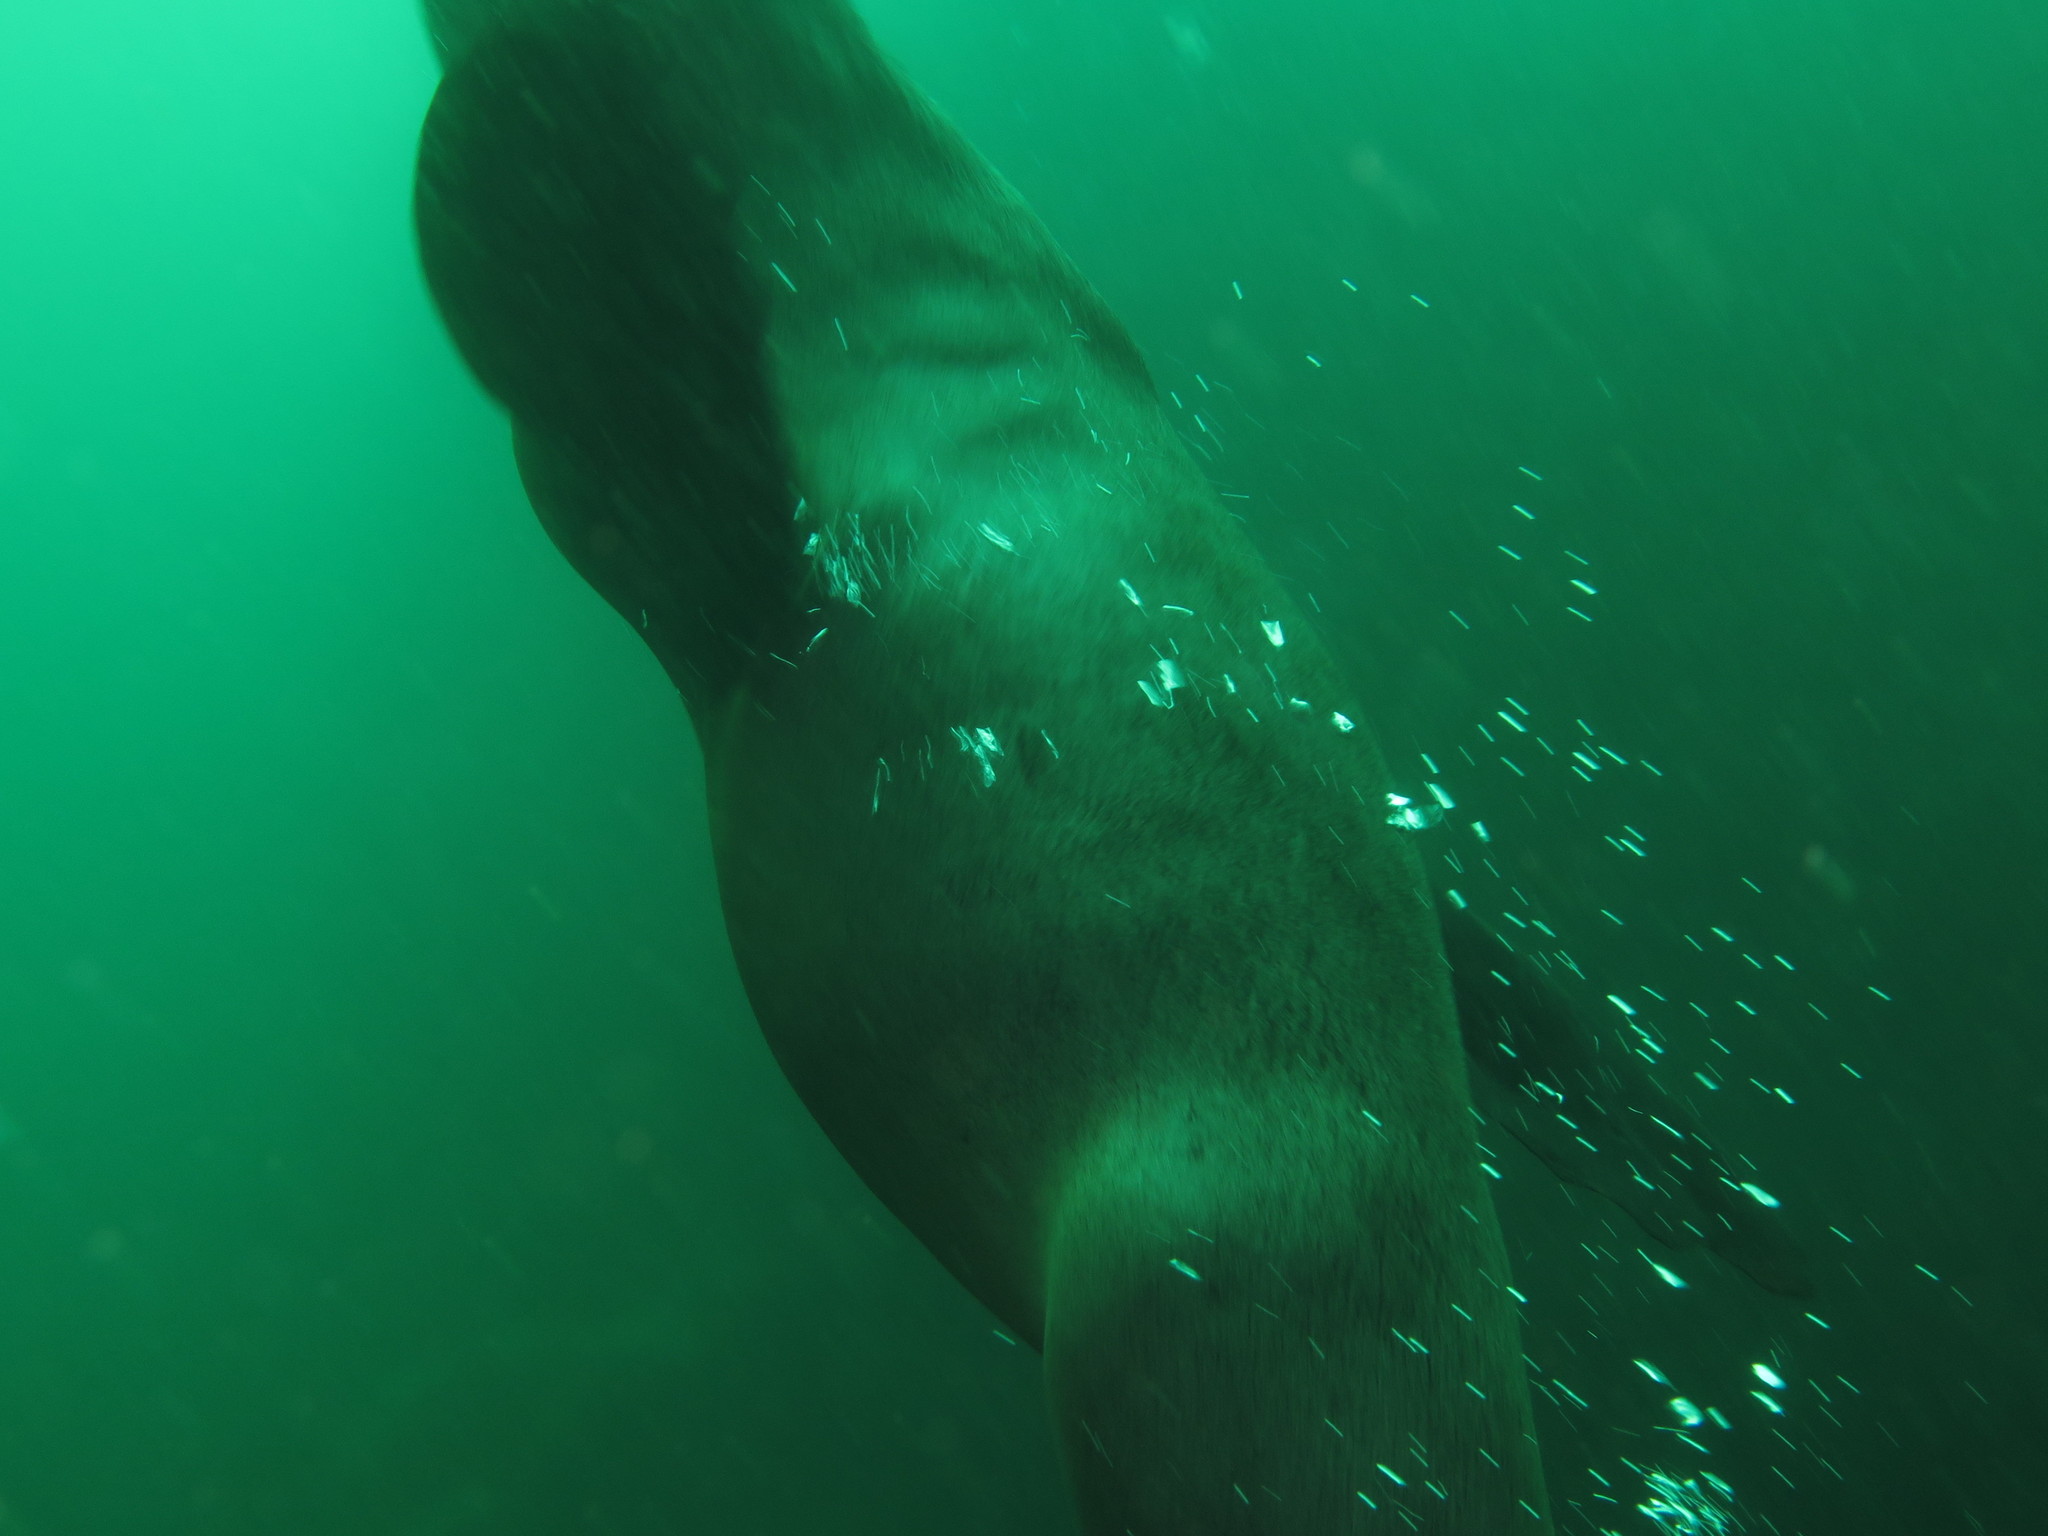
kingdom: Animalia
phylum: Chordata
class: Mammalia
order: Carnivora
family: Otariidae
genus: Arctocephalus
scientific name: Arctocephalus pusillus
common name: Brown fur seal
